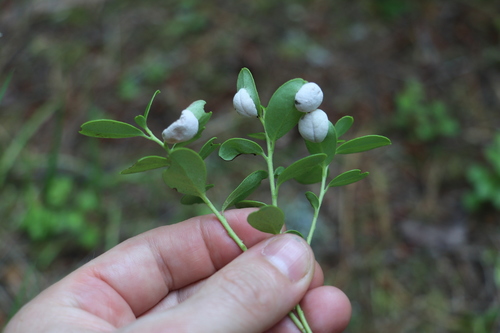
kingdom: Fungi
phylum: Basidiomycota
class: Exobasidiomycetes
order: Exobasidiales
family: Exobasidiaceae
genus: Exobasidium
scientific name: Exobasidium vaccinii
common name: Cowberry redleaf
